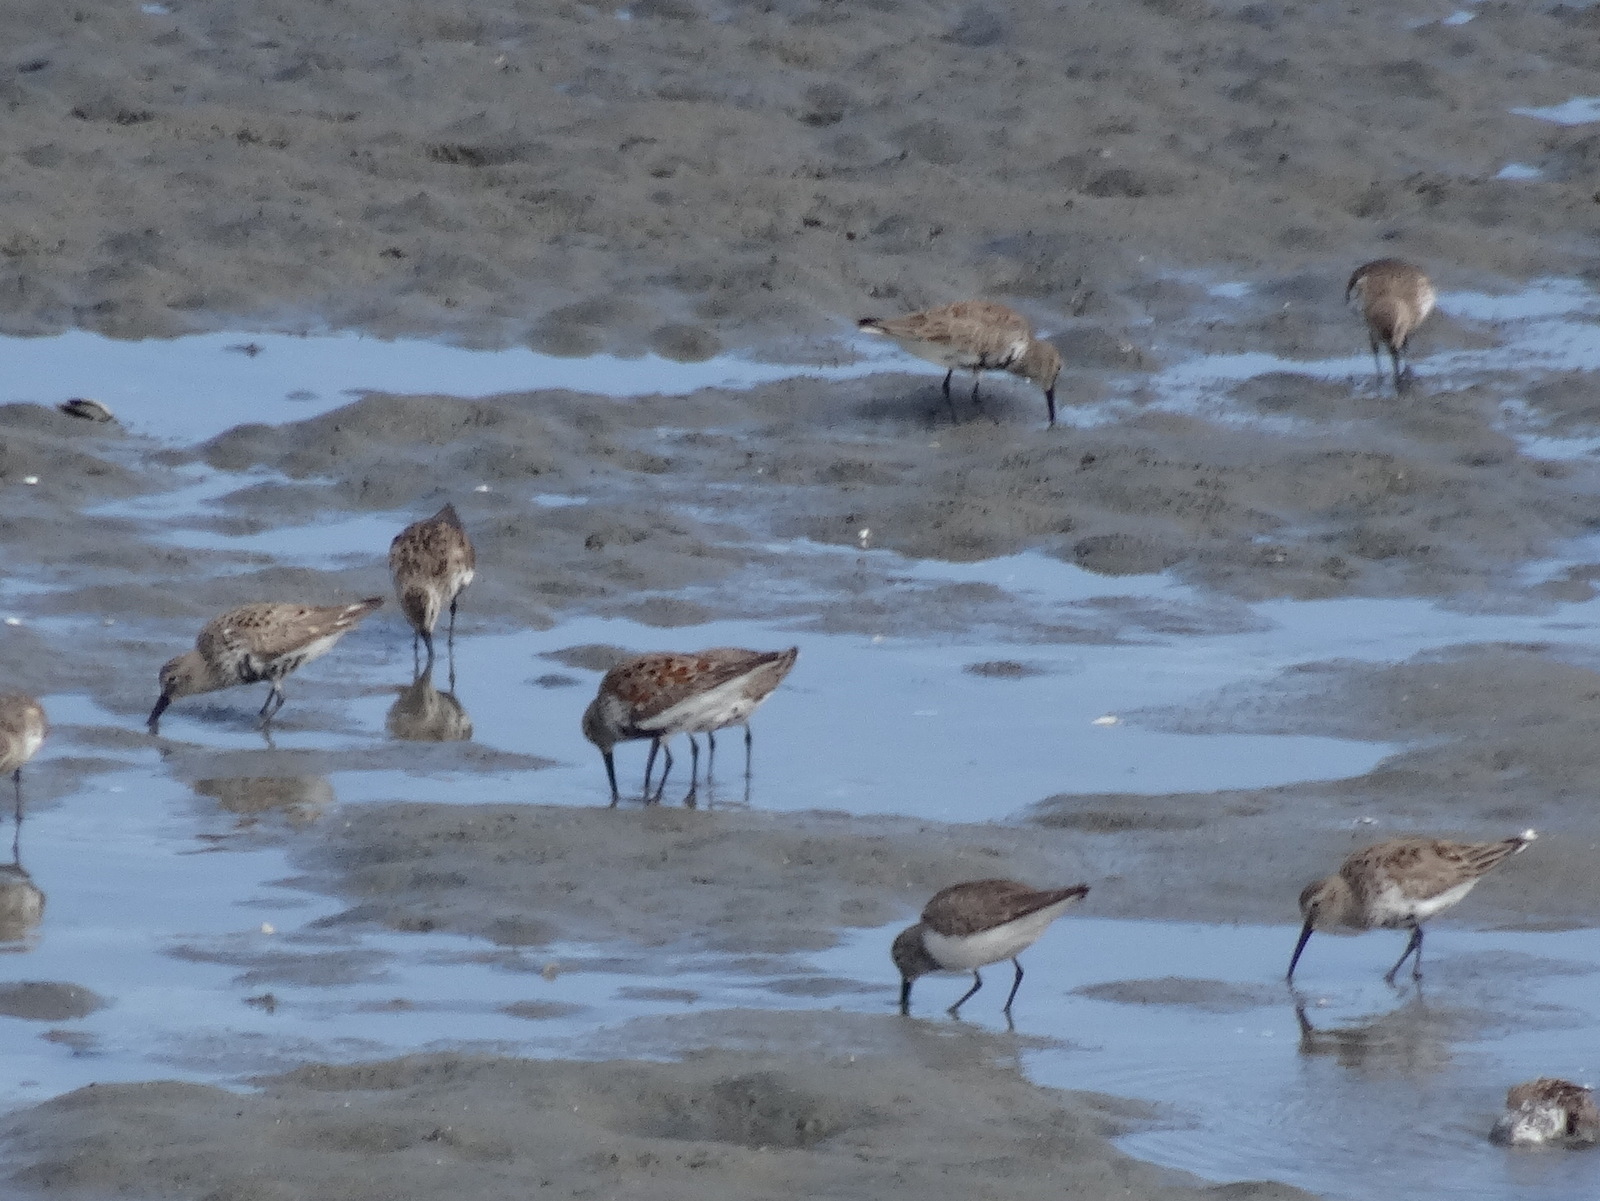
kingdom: Animalia
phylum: Chordata
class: Aves
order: Charadriiformes
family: Scolopacidae
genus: Calidris
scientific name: Calidris alpina
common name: Dunlin
